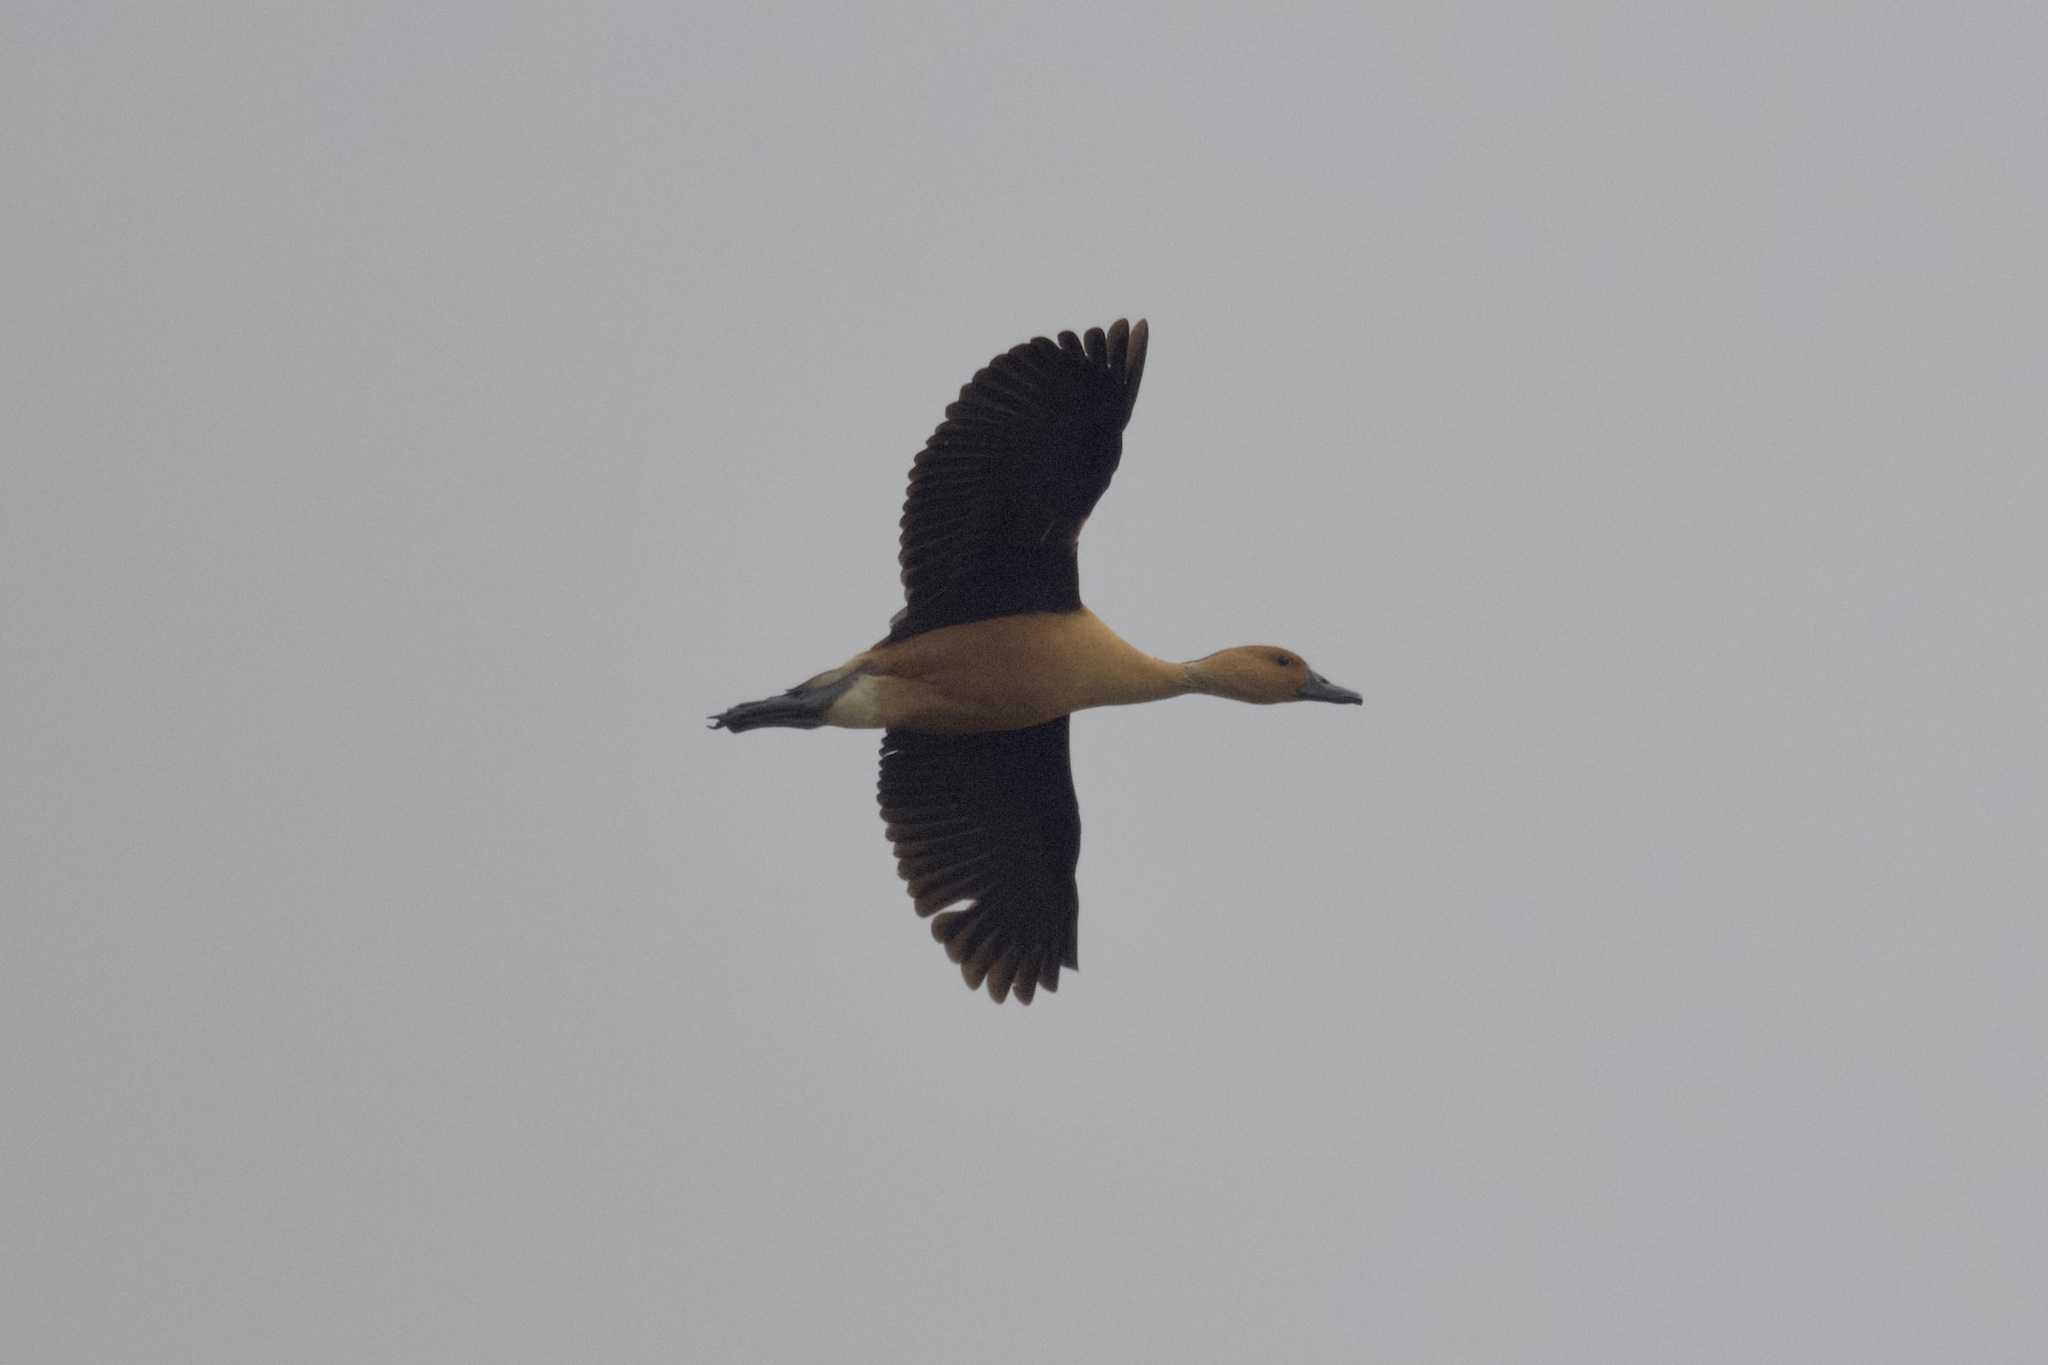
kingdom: Animalia
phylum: Chordata
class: Aves
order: Anseriformes
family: Anatidae
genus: Dendrocygna
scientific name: Dendrocygna bicolor
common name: Fulvous whistling duck
